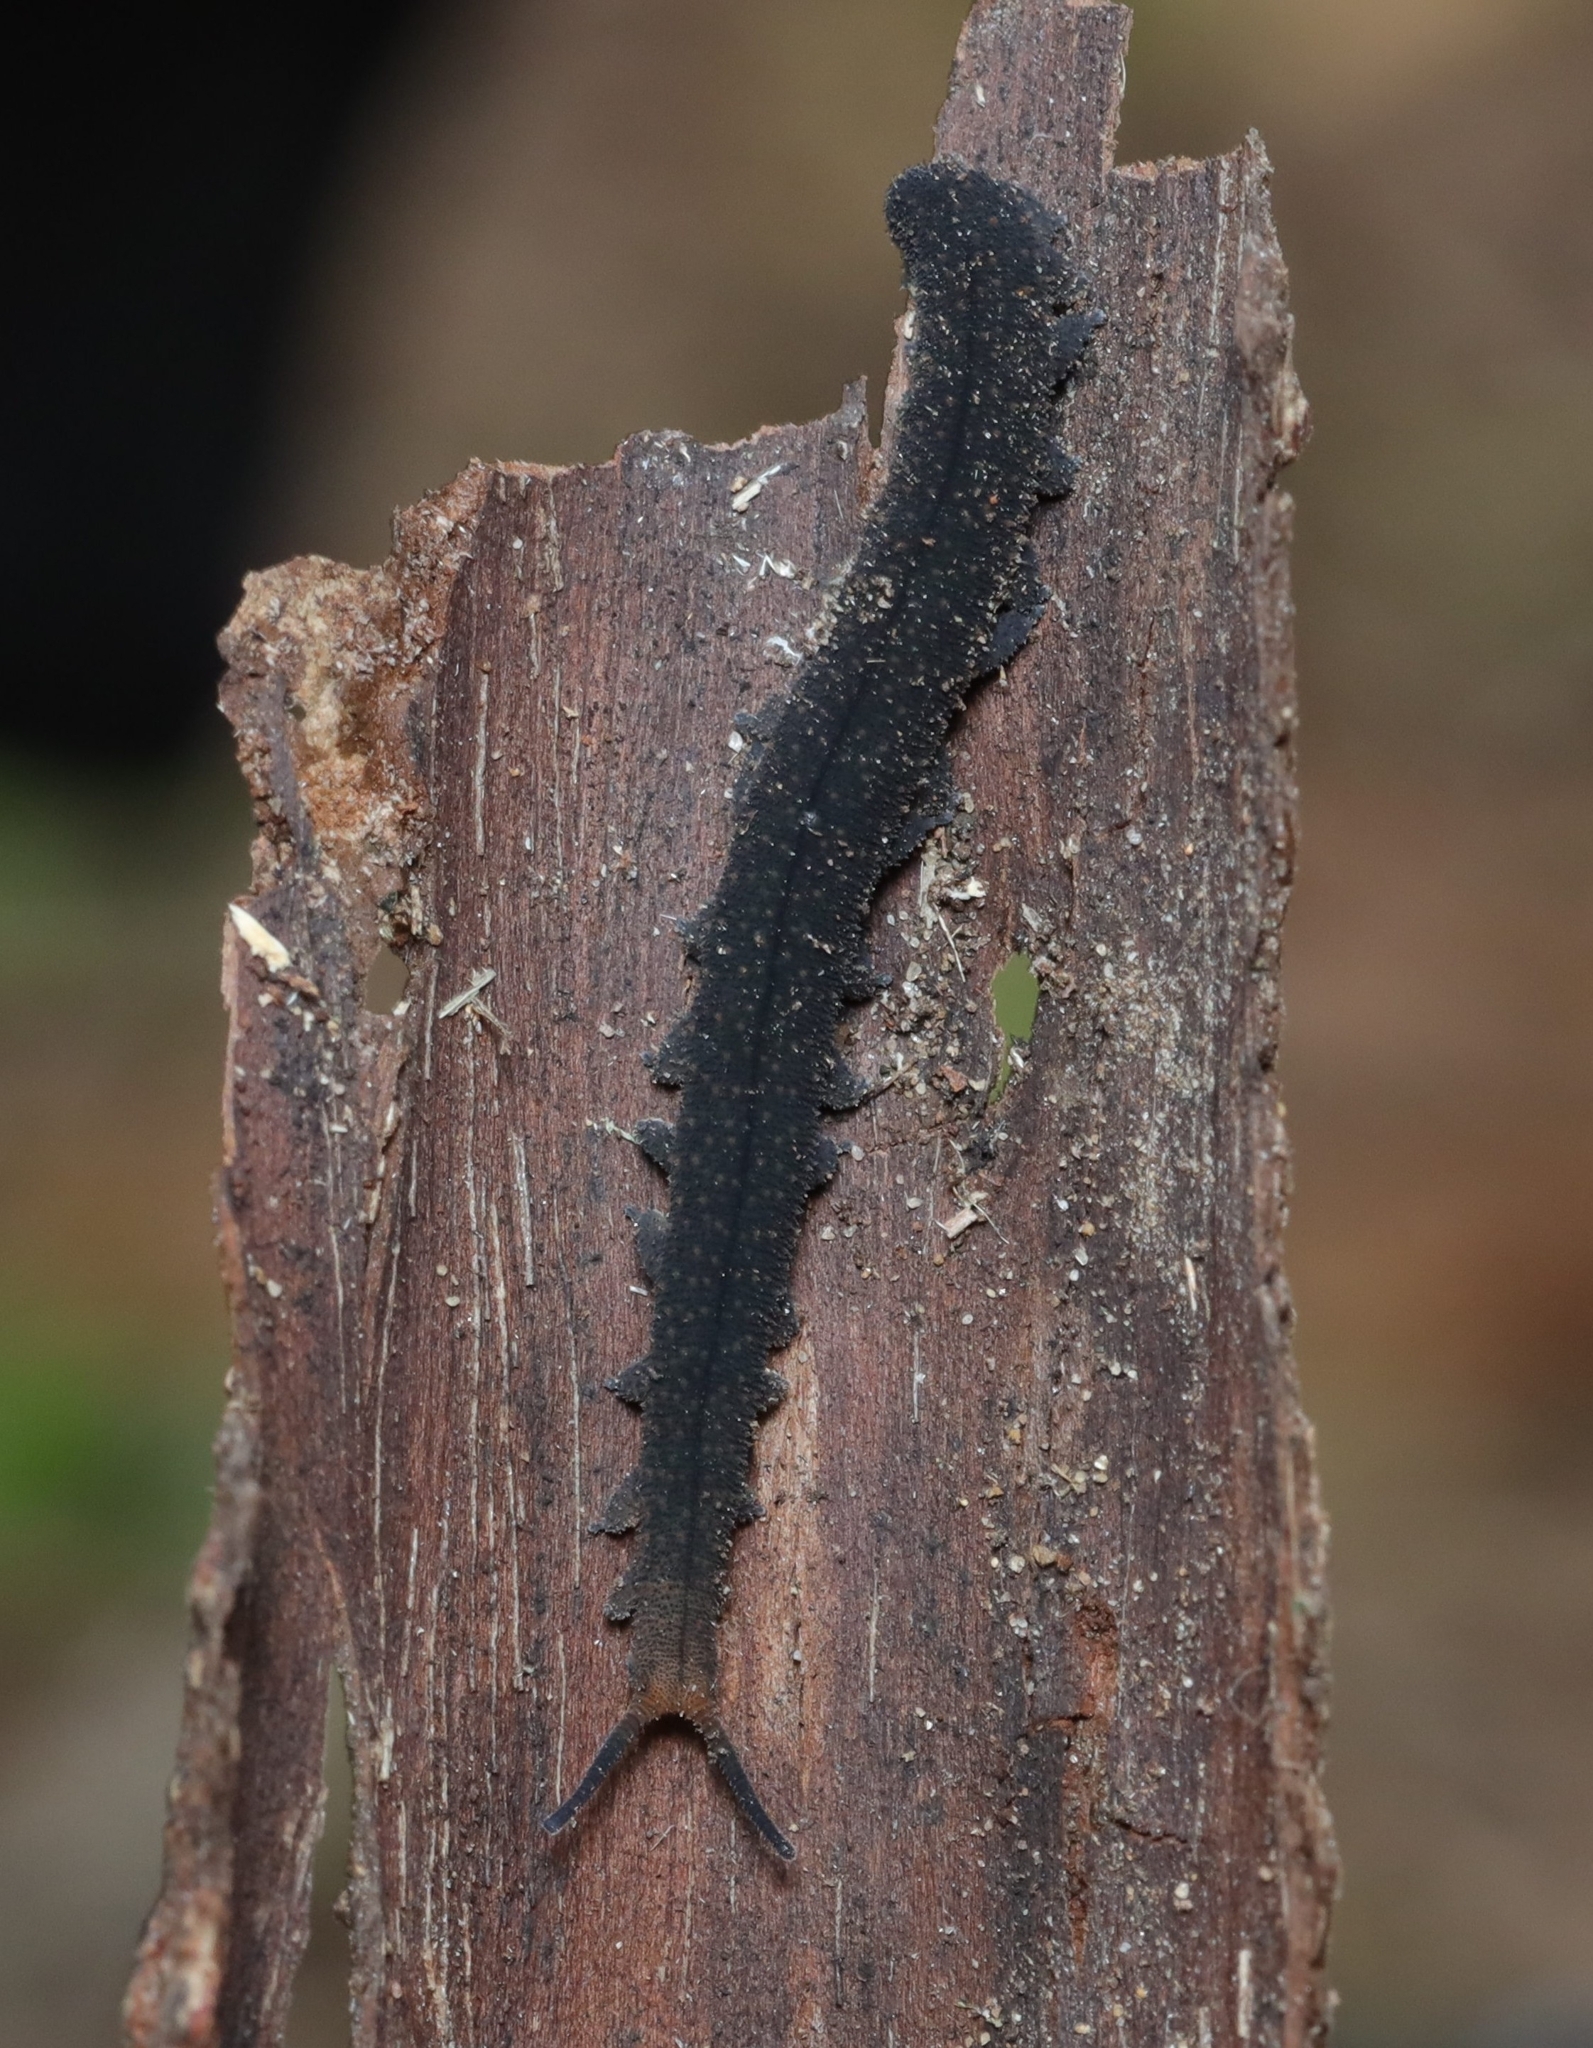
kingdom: Animalia
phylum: Onychophora
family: Peripatopsidae
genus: Opisthopatus
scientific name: Opisthopatus kwazululandi
